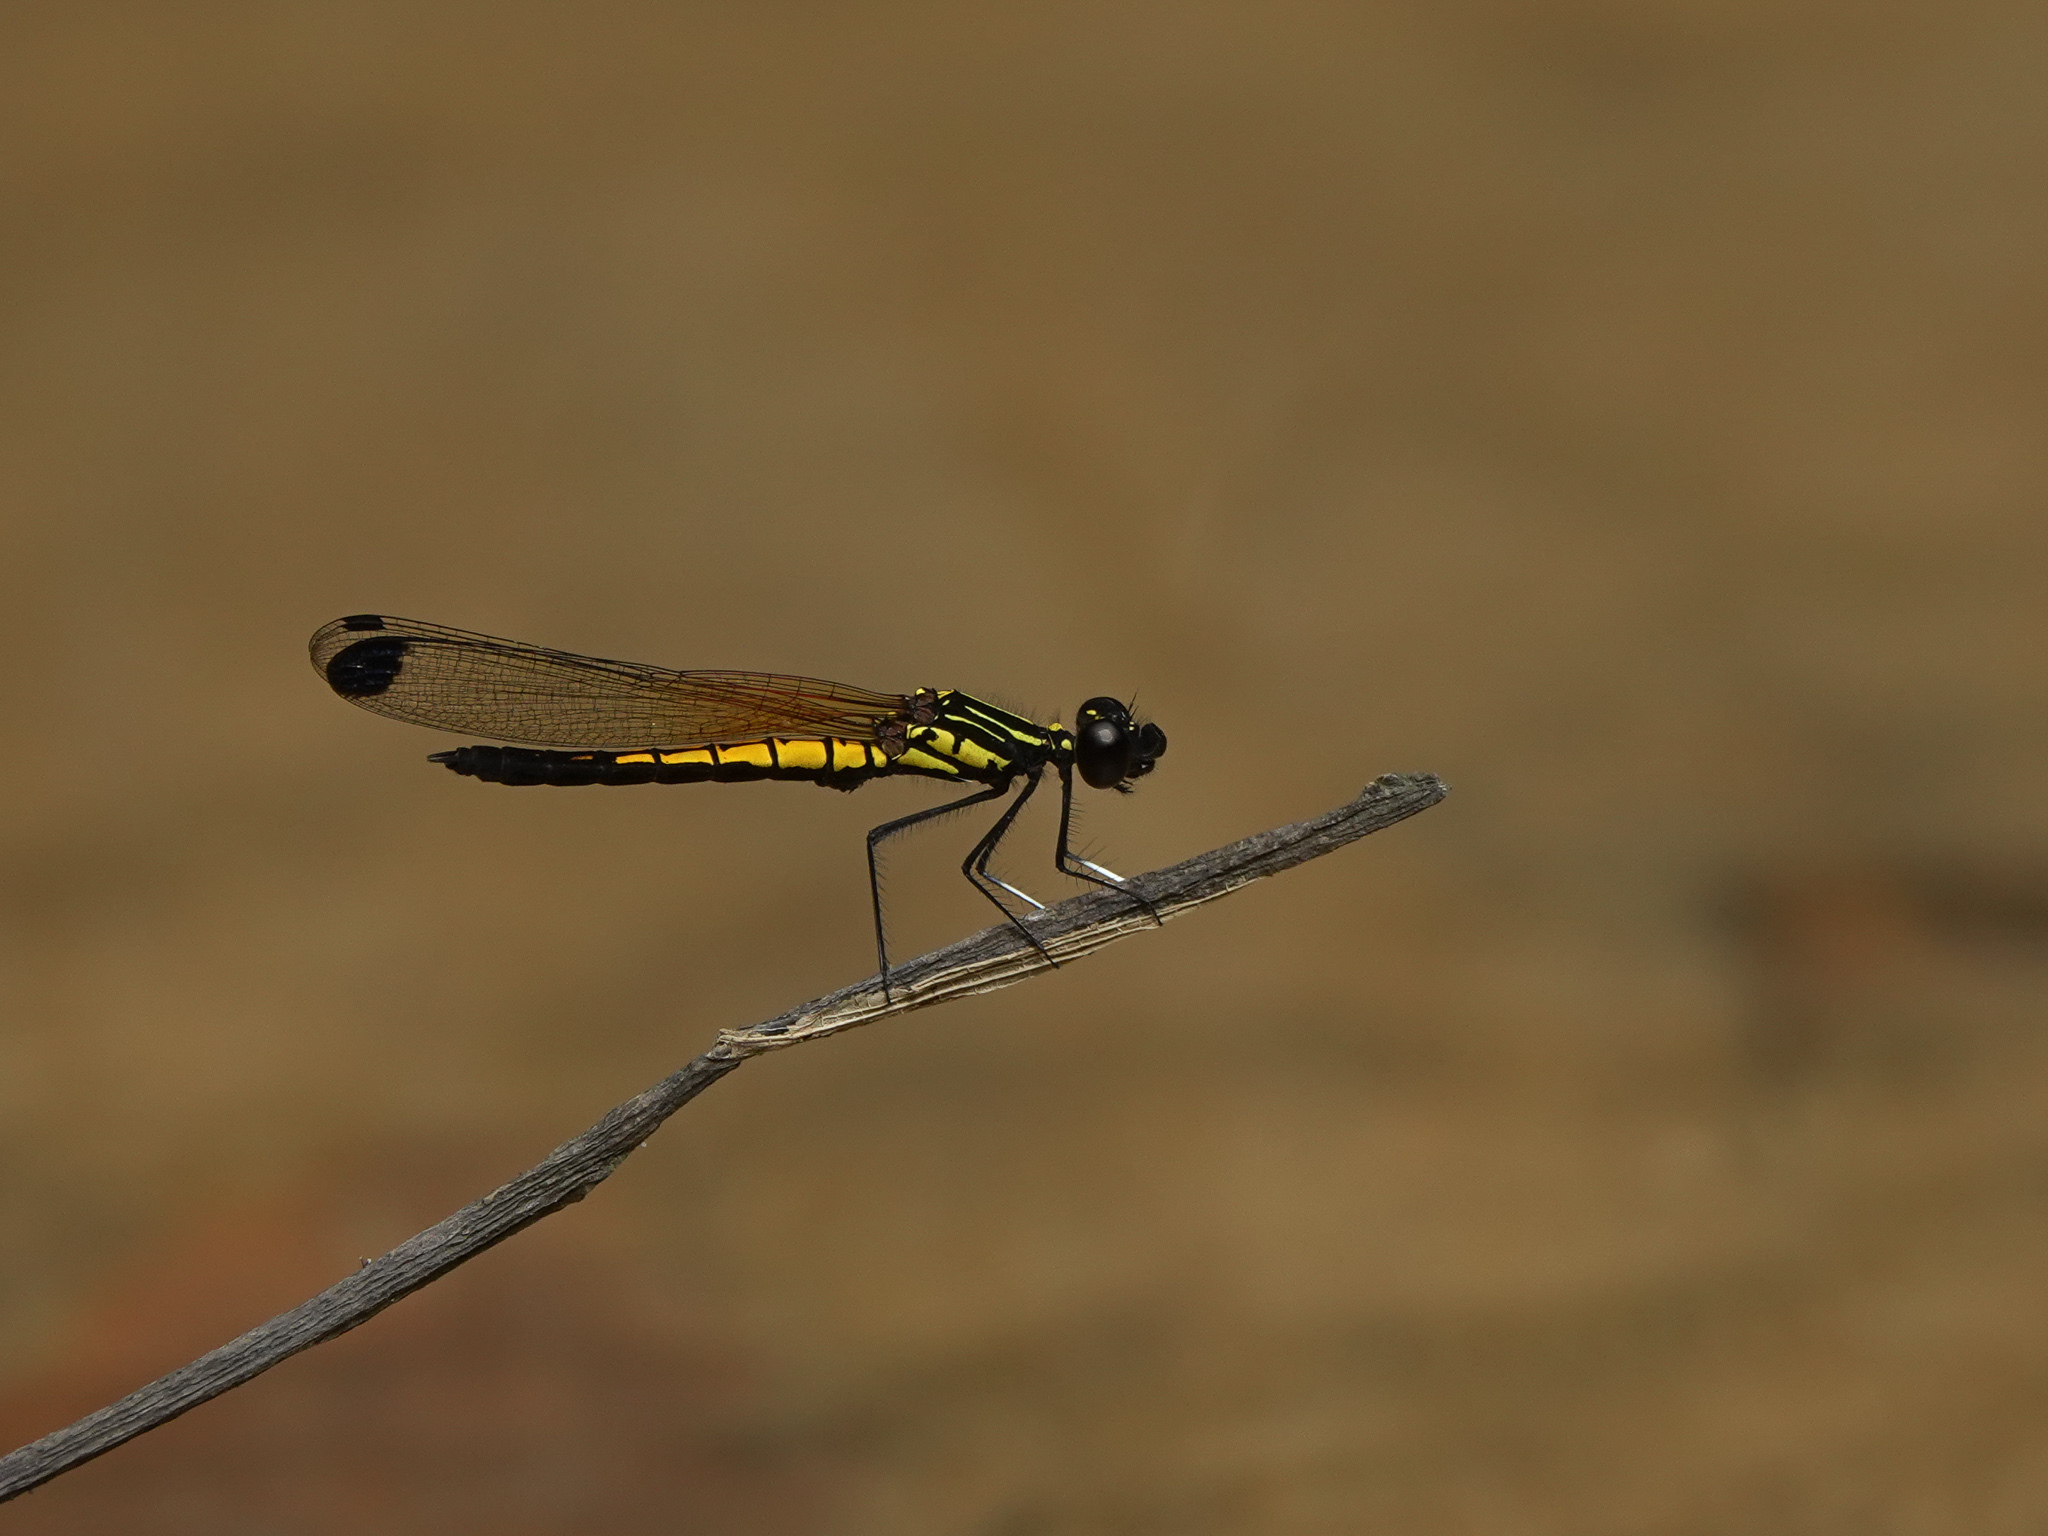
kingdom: Animalia
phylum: Arthropoda
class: Insecta
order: Odonata
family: Chlorocyphidae
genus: Libellago
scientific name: Libellago lineata
